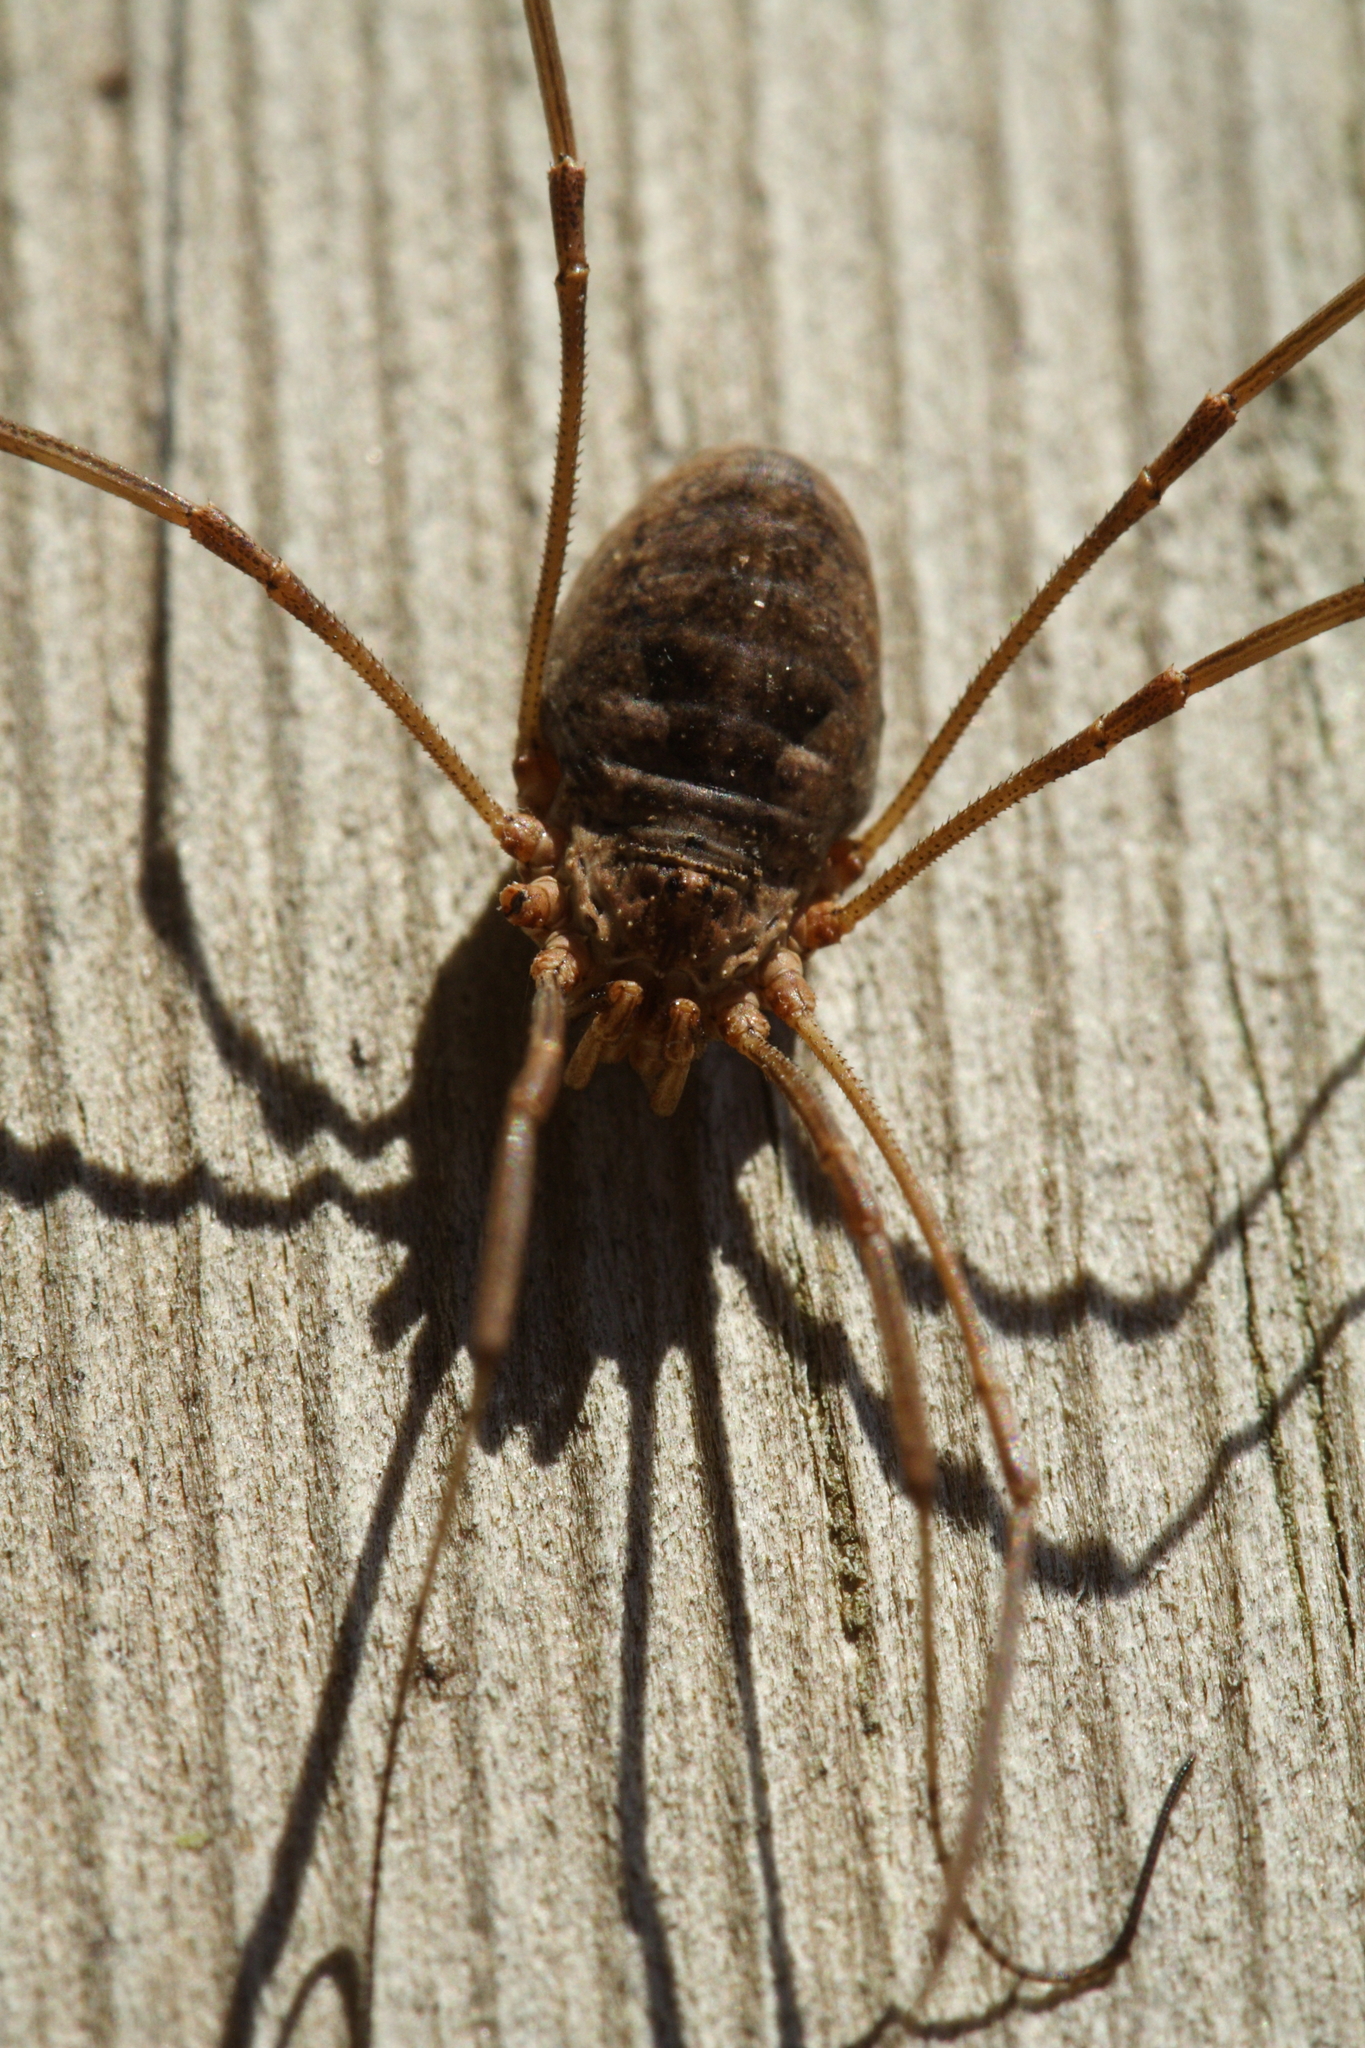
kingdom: Animalia
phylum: Arthropoda
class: Arachnida
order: Opiliones
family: Phalangiidae
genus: Phalangium
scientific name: Phalangium opilio
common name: Daddy longleg
